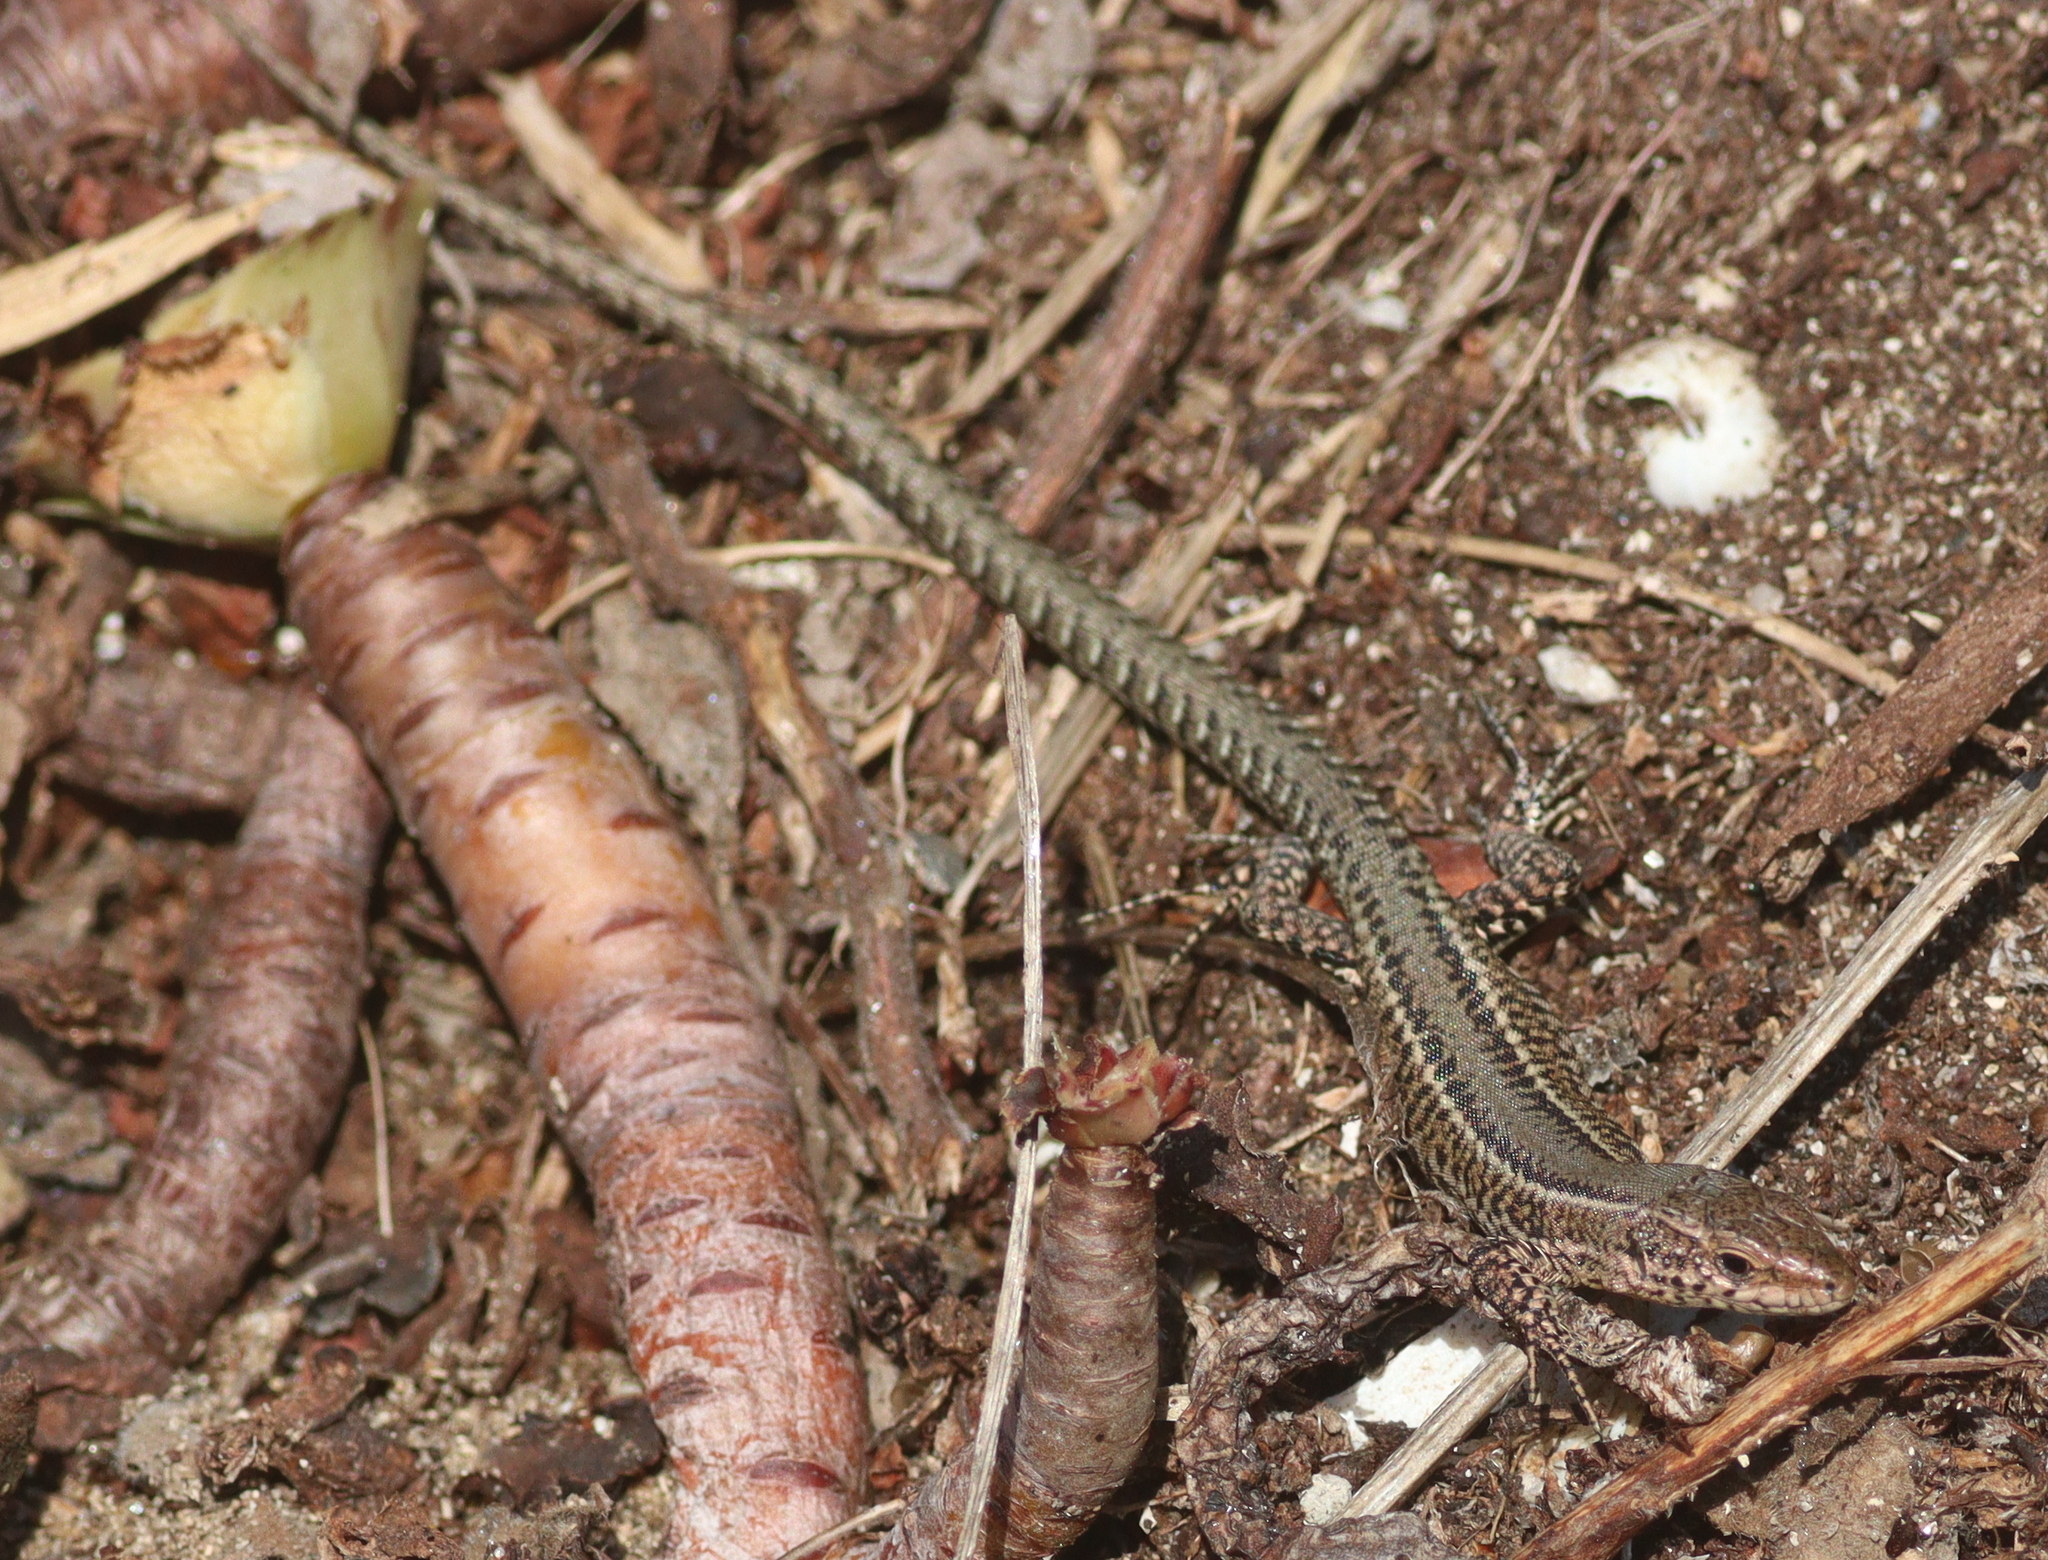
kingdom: Animalia
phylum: Chordata
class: Squamata
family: Lacertidae
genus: Podarcis
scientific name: Podarcis bocagei
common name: Bocage's wall lizard
